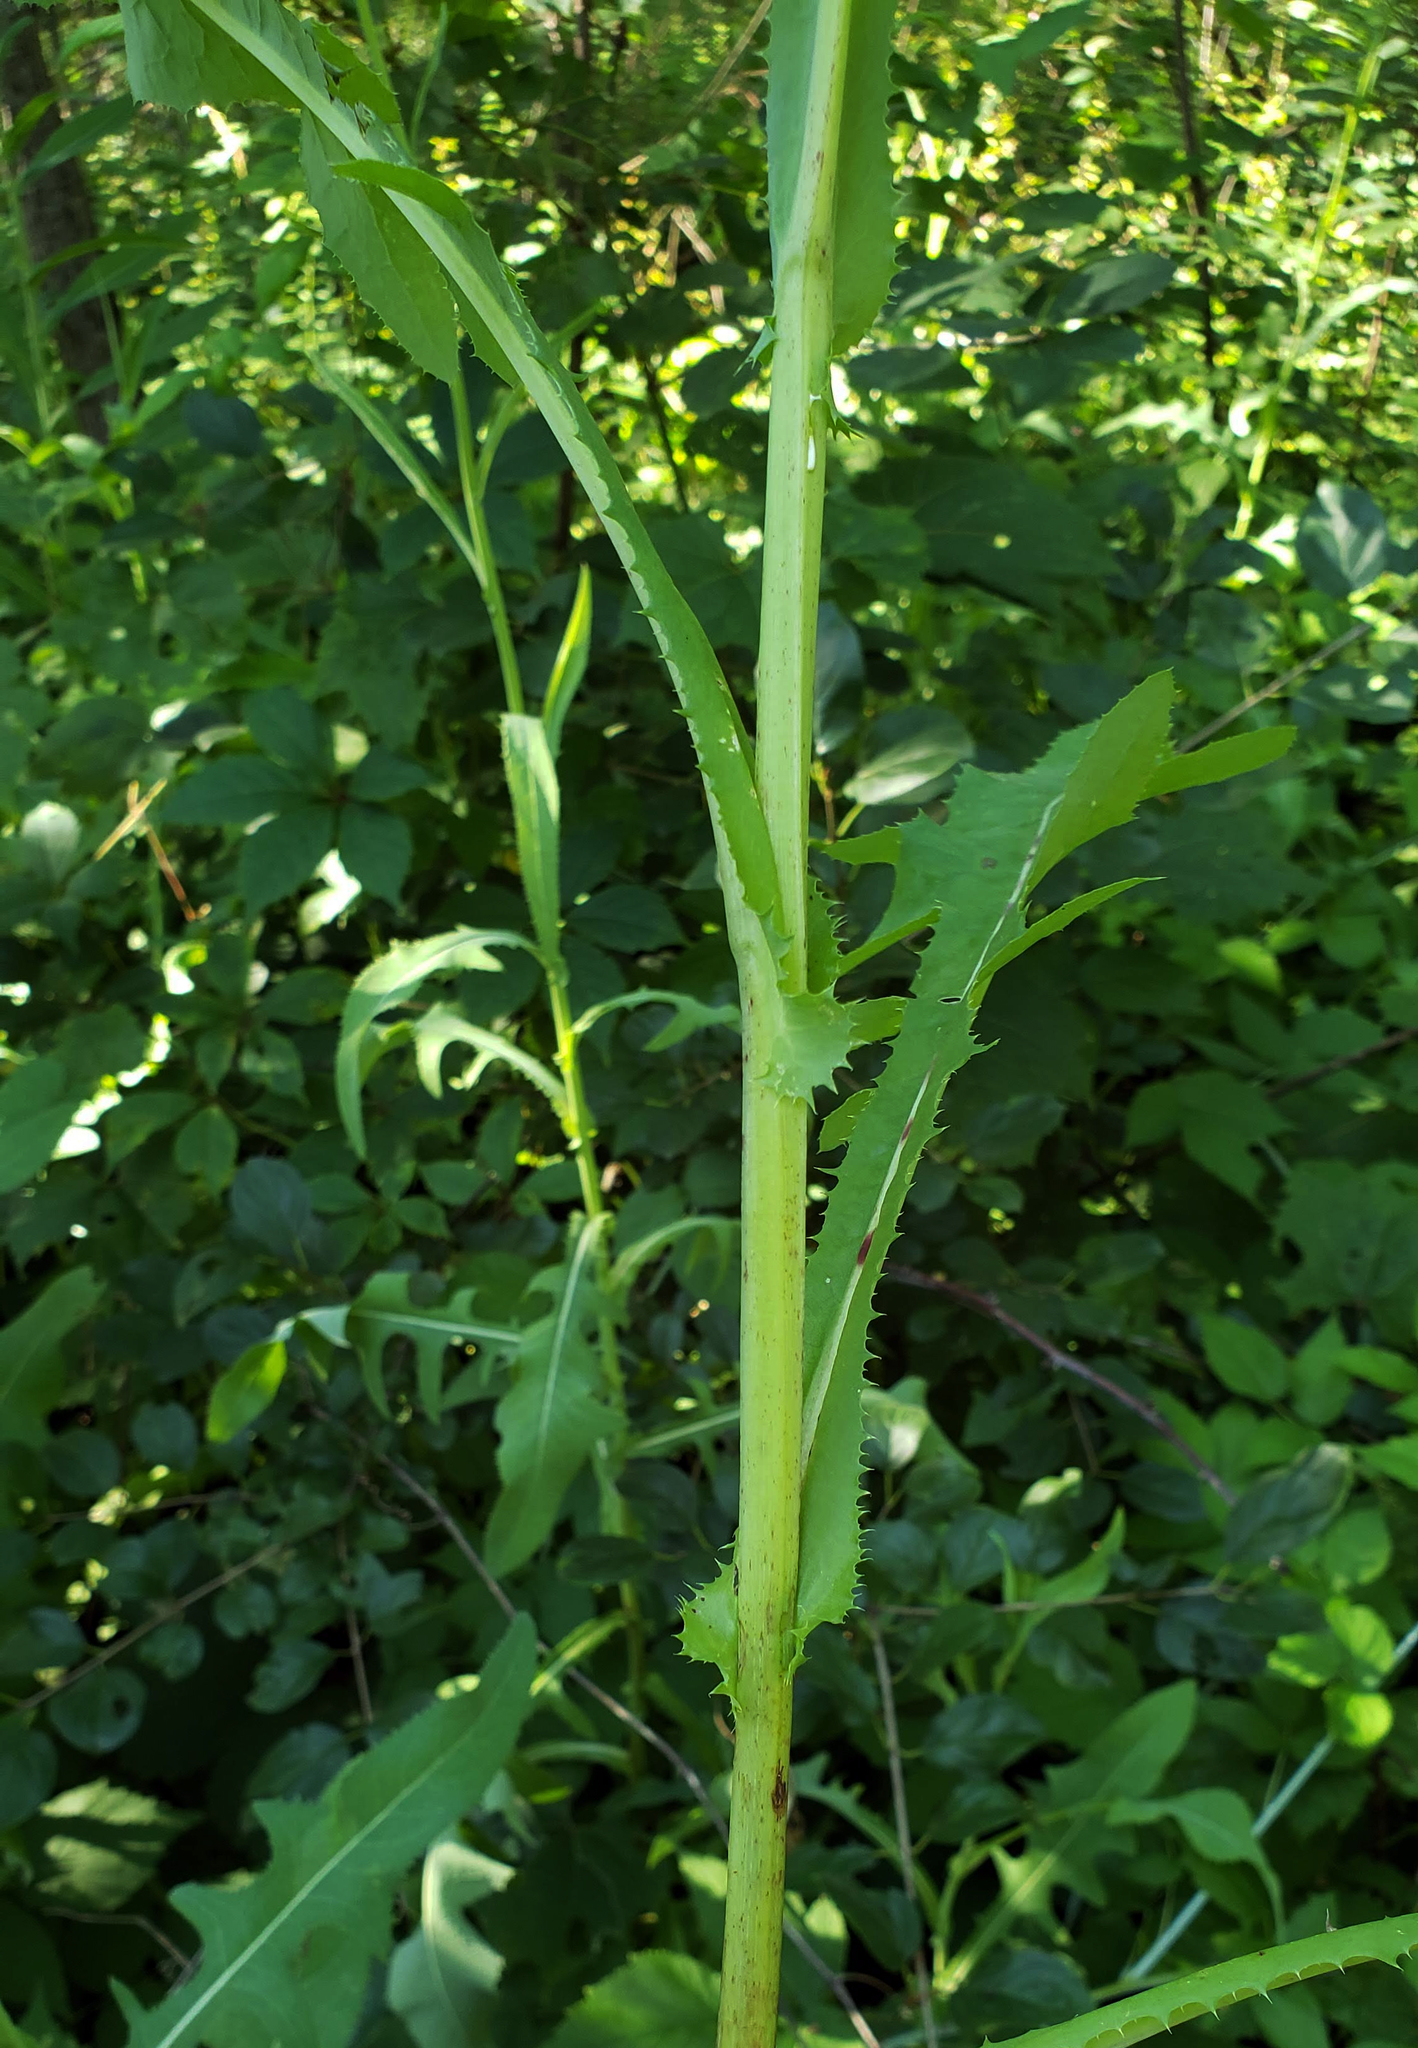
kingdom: Plantae
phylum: Tracheophyta
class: Magnoliopsida
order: Asterales
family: Asteraceae
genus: Sonchus
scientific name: Sonchus arvensis
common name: Perennial sow-thistle
